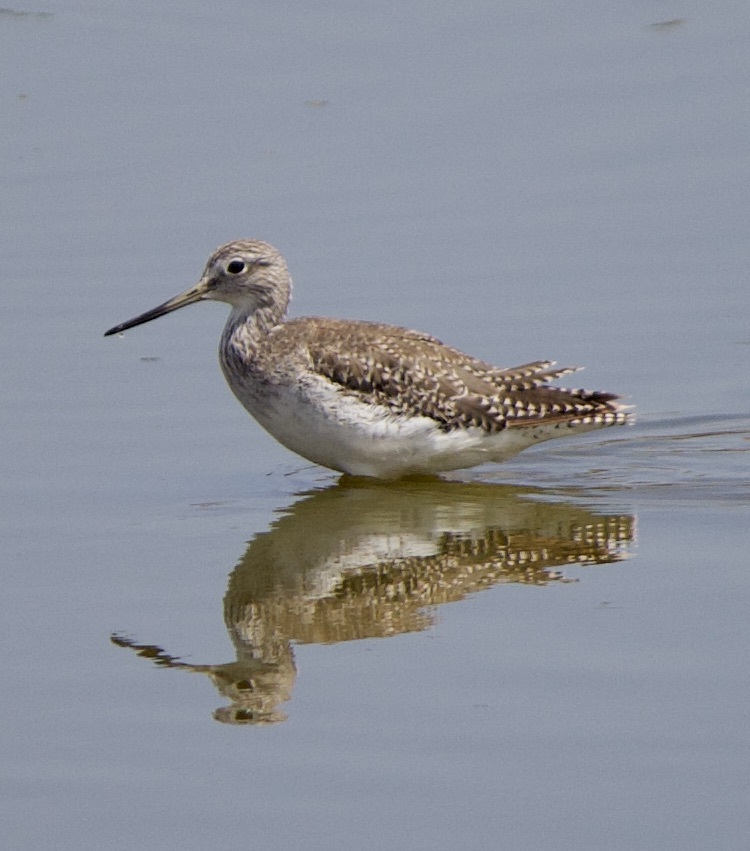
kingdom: Animalia
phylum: Chordata
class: Aves
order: Charadriiformes
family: Scolopacidae
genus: Tringa
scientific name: Tringa melanoleuca
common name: Greater yellowlegs
